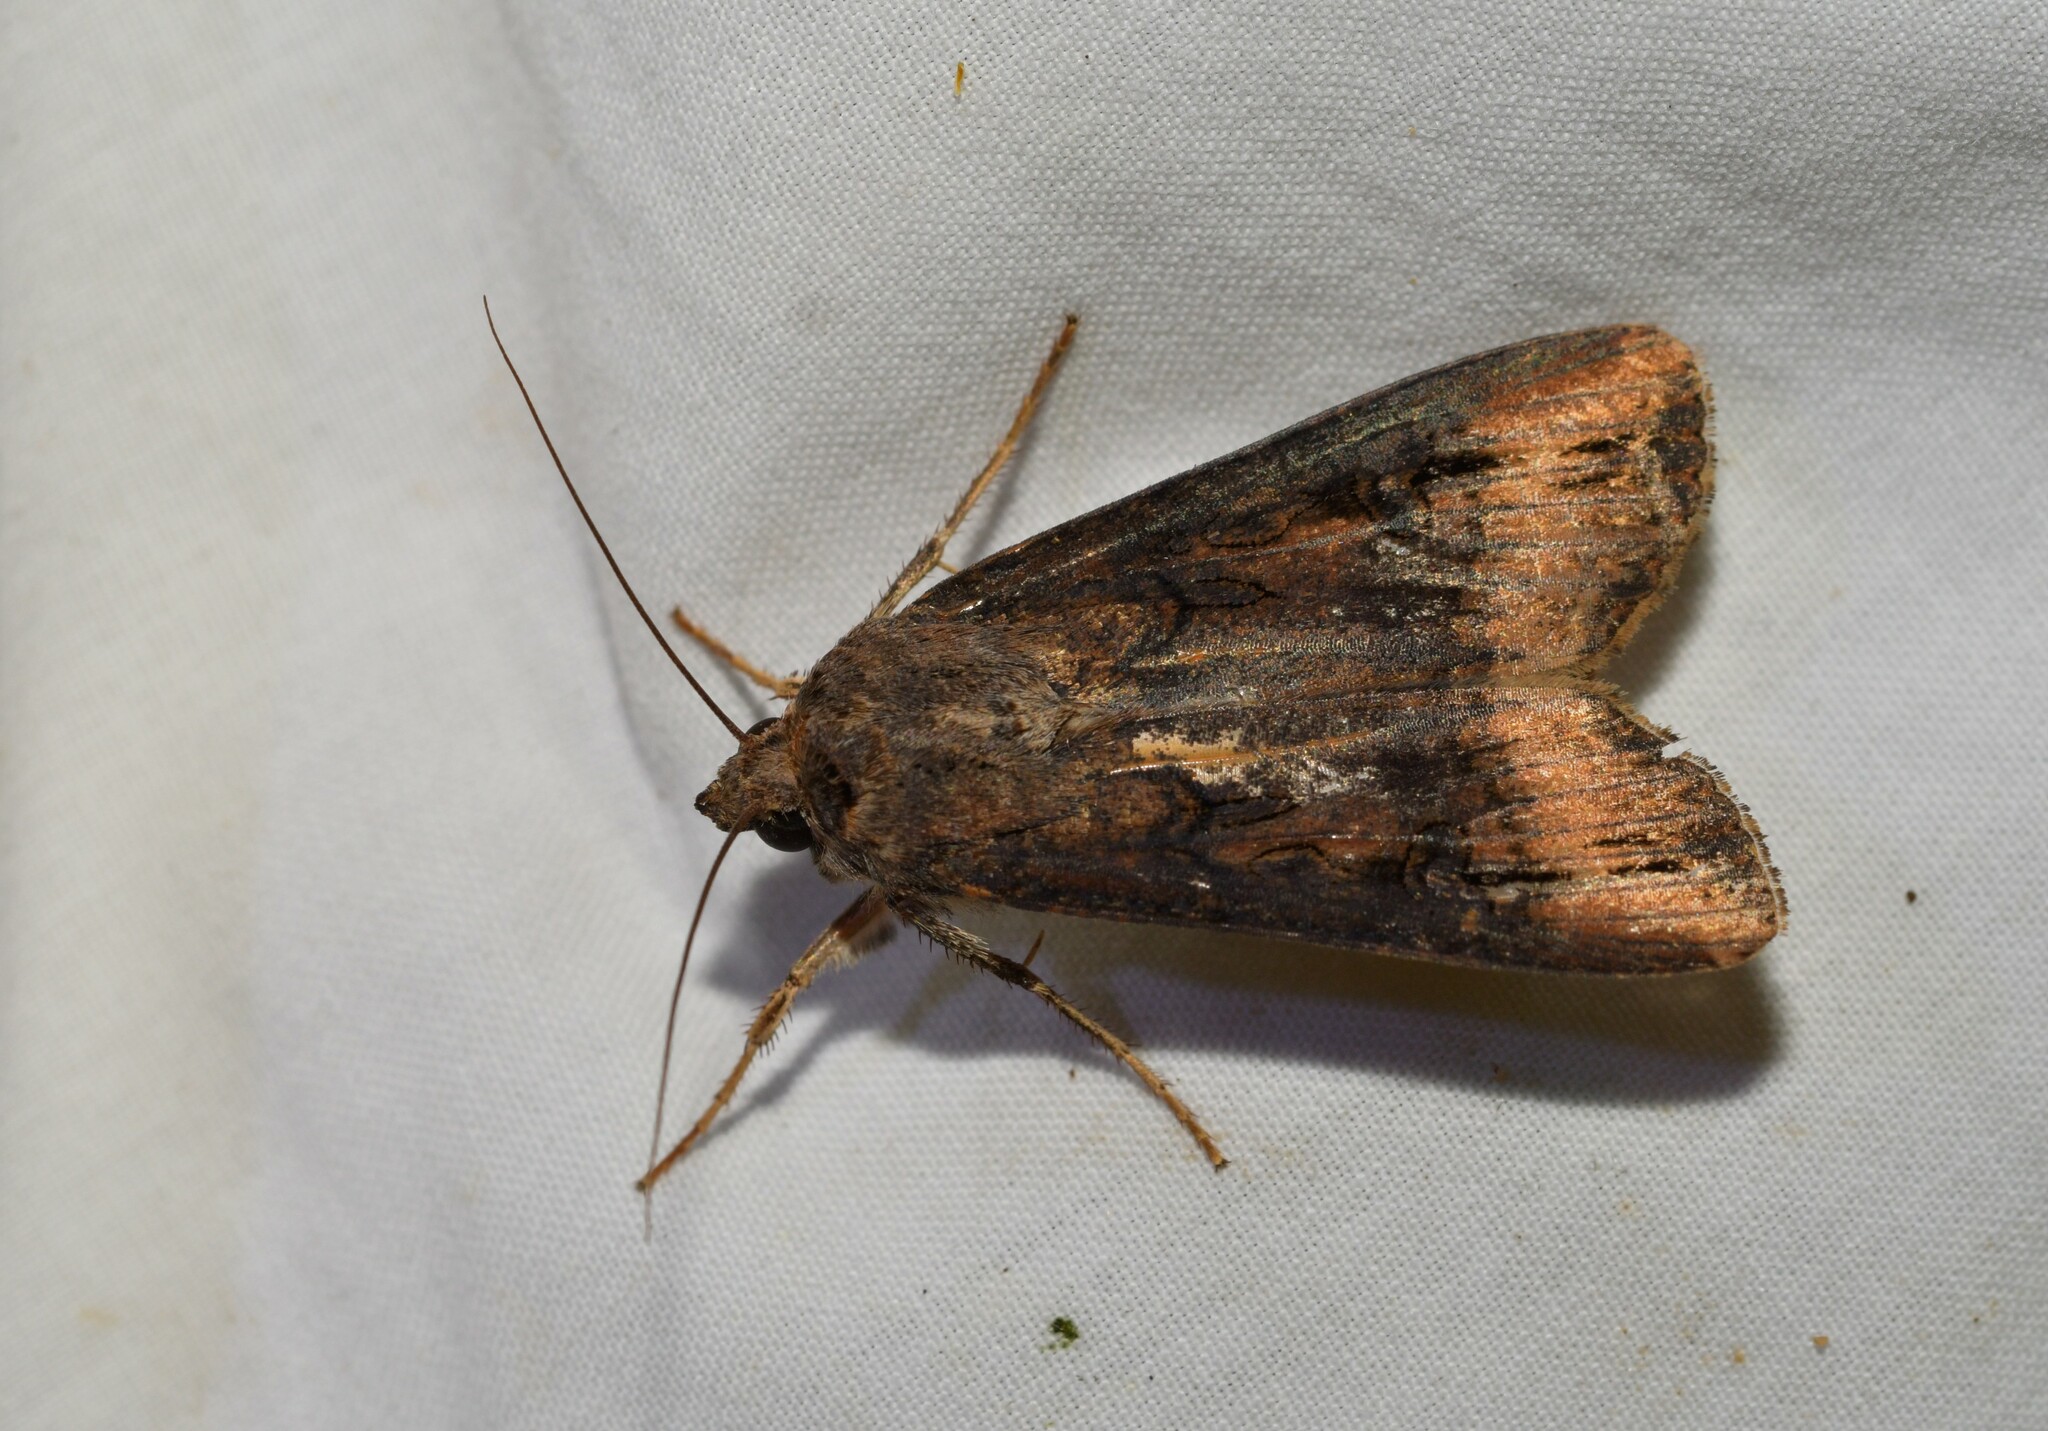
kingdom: Animalia
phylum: Arthropoda
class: Insecta
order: Lepidoptera
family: Noctuidae
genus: Agrotis
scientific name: Agrotis ipsilon
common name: Dark sword-grass
